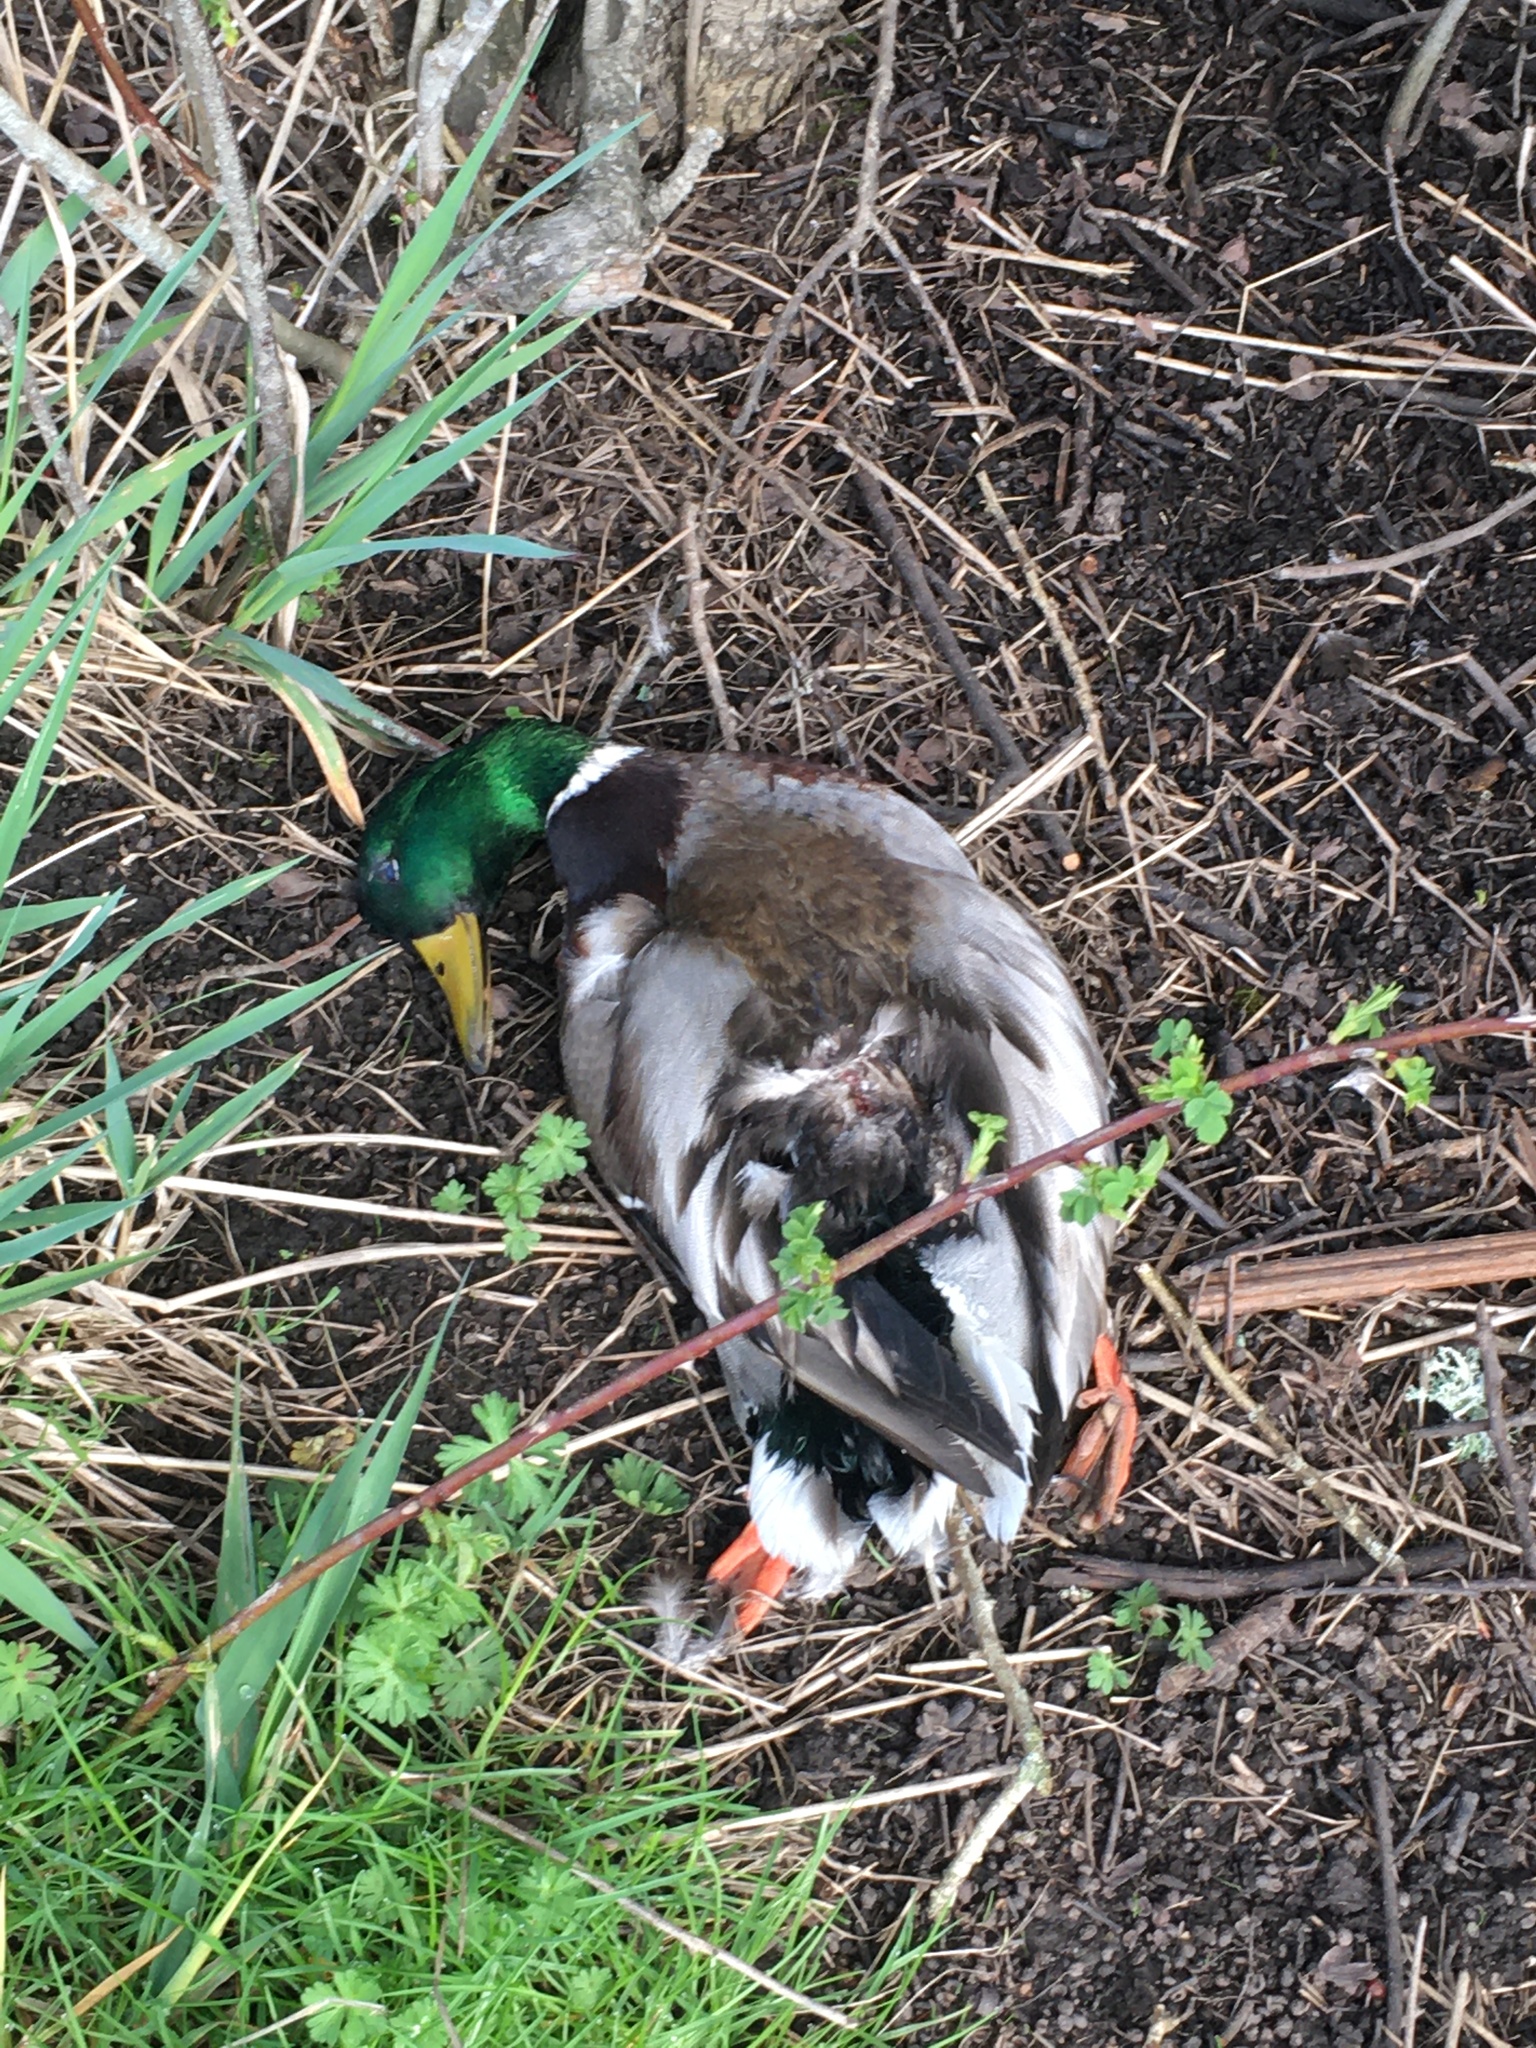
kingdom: Animalia
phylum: Chordata
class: Aves
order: Anseriformes
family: Anatidae
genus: Anas
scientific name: Anas platyrhynchos
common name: Mallard
